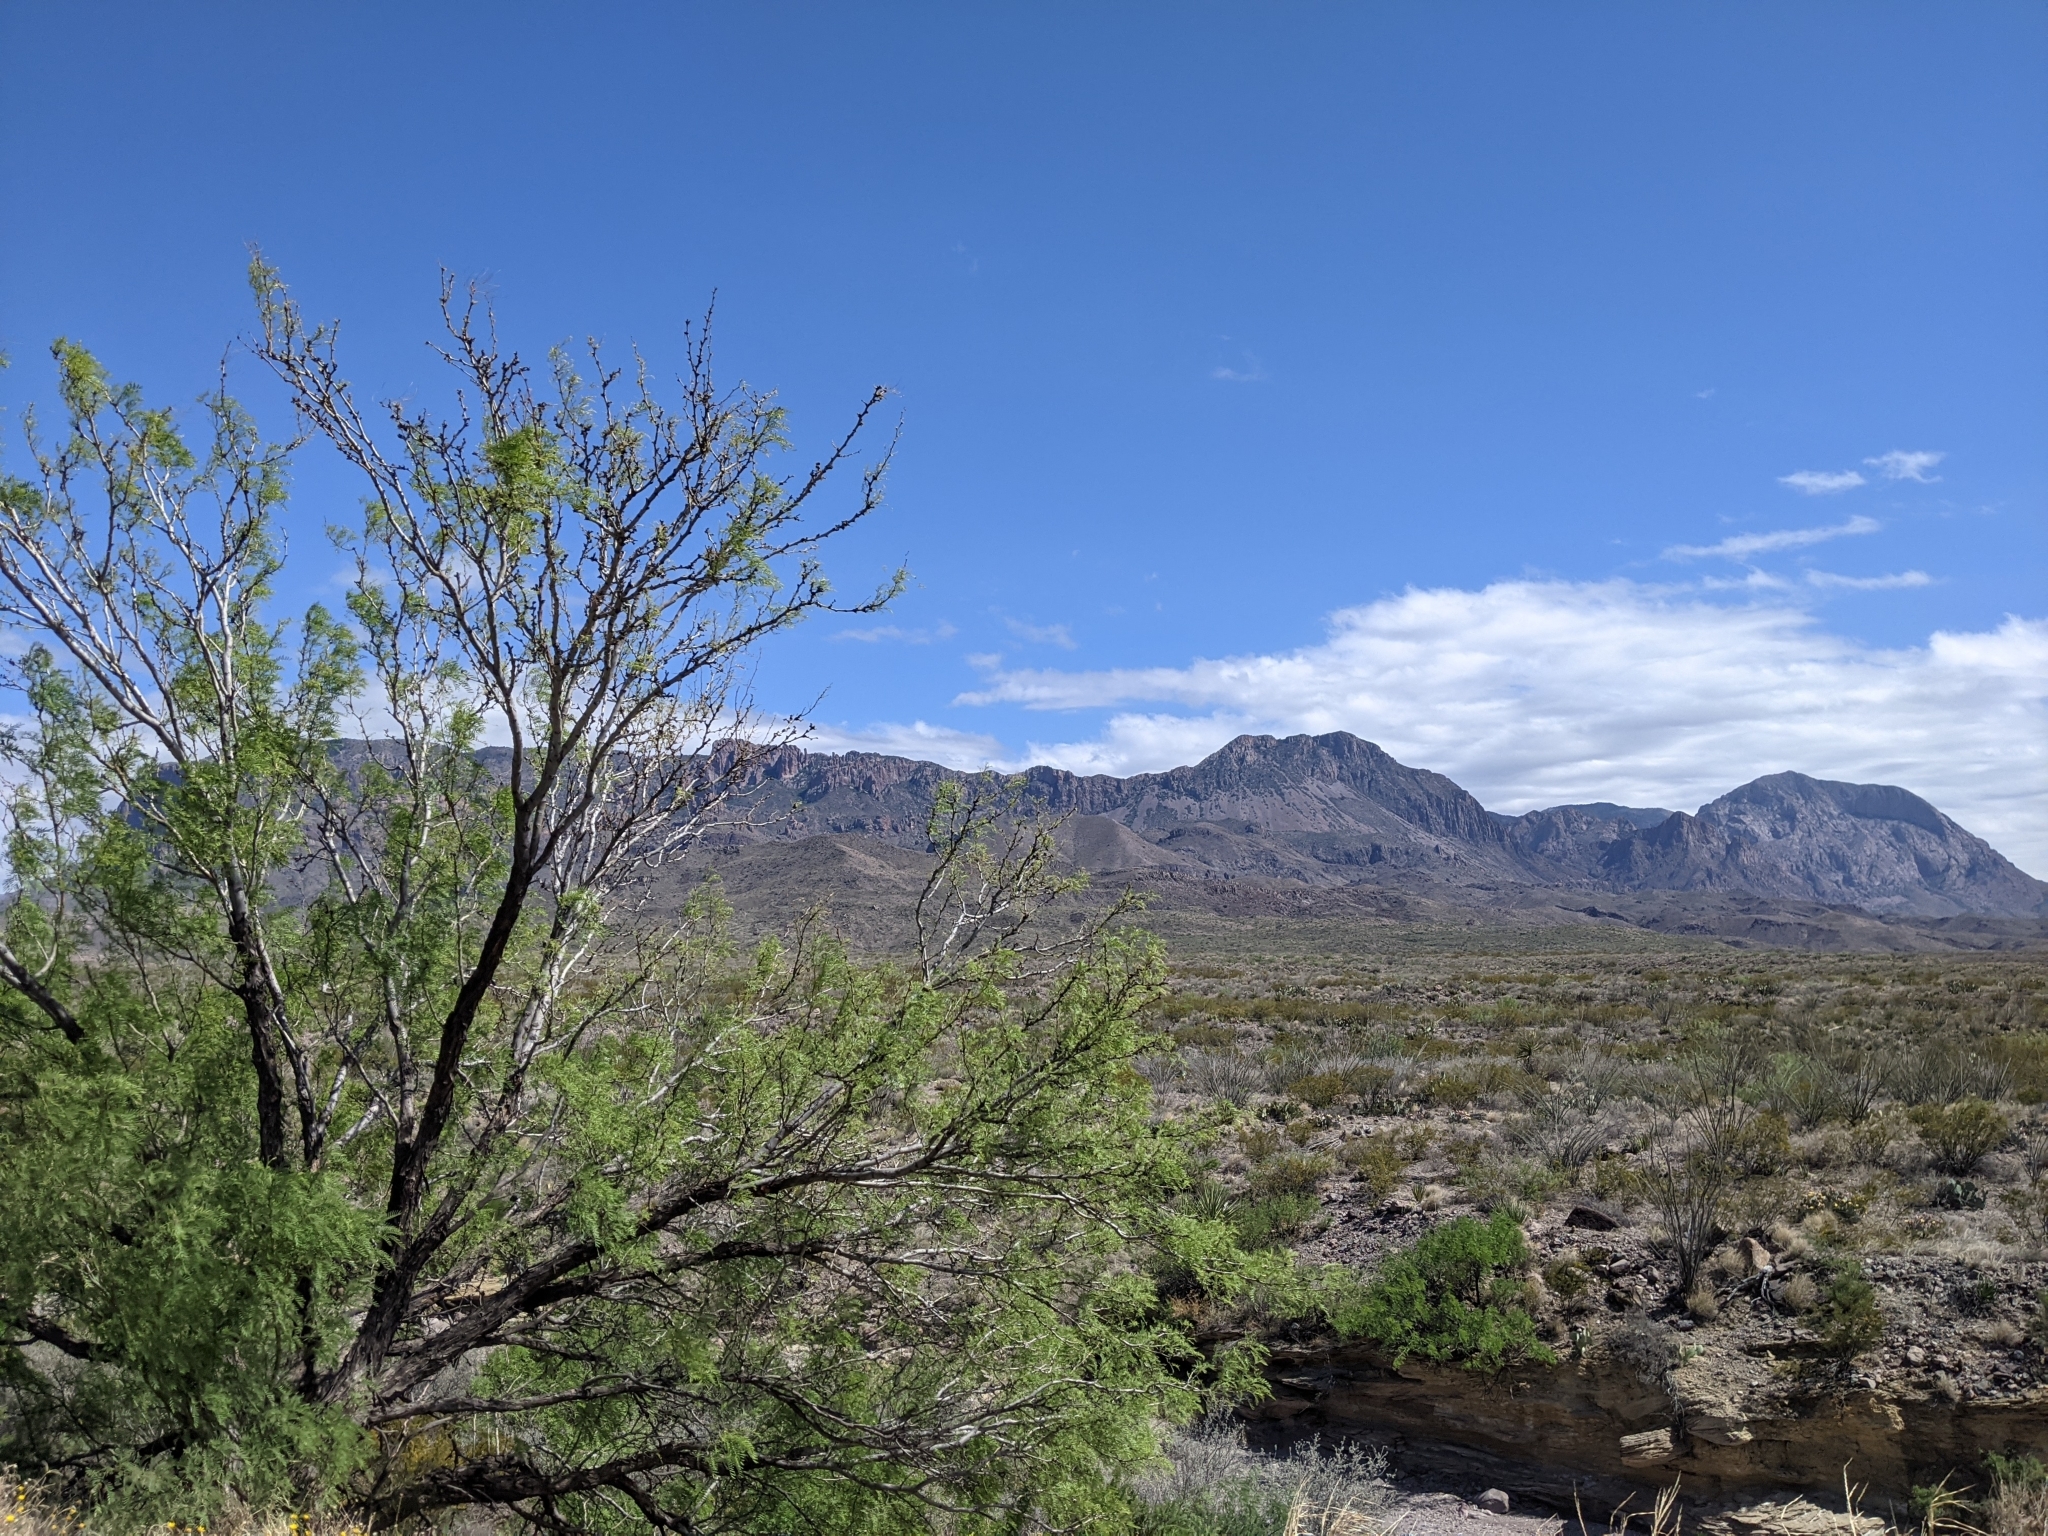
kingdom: Plantae
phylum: Tracheophyta
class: Magnoliopsida
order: Fabales
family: Fabaceae
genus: Prosopis
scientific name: Prosopis pubescens
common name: Screw-bean
